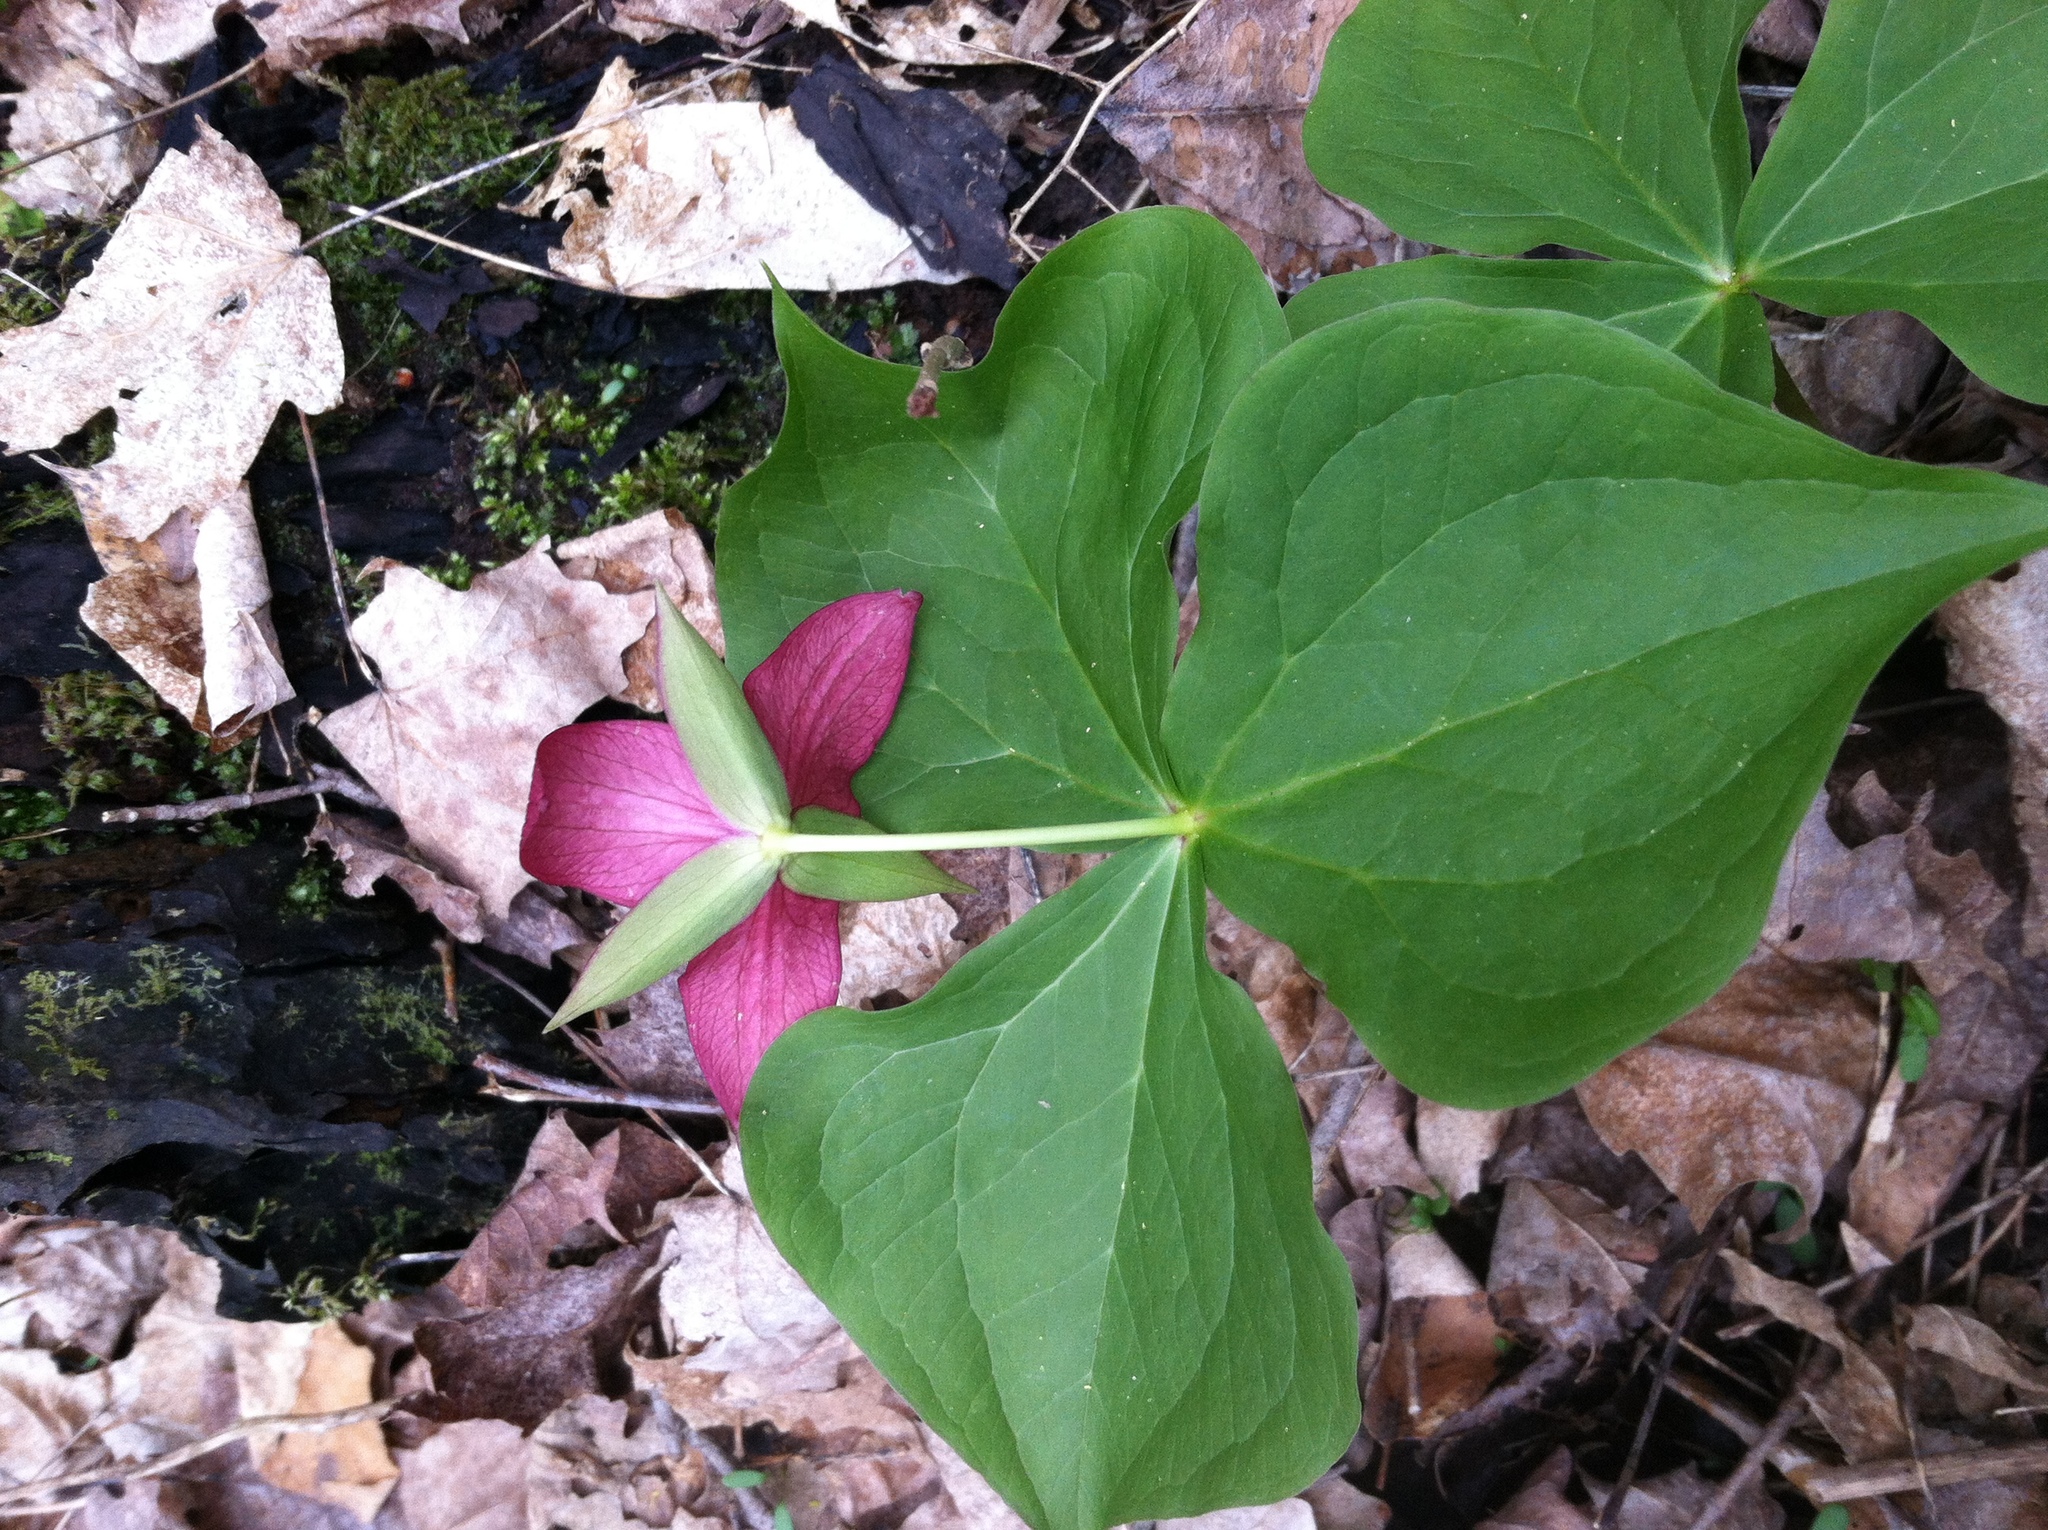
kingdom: Plantae
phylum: Tracheophyta
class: Liliopsida
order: Liliales
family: Melanthiaceae
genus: Trillium
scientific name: Trillium erectum
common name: Purple trillium
